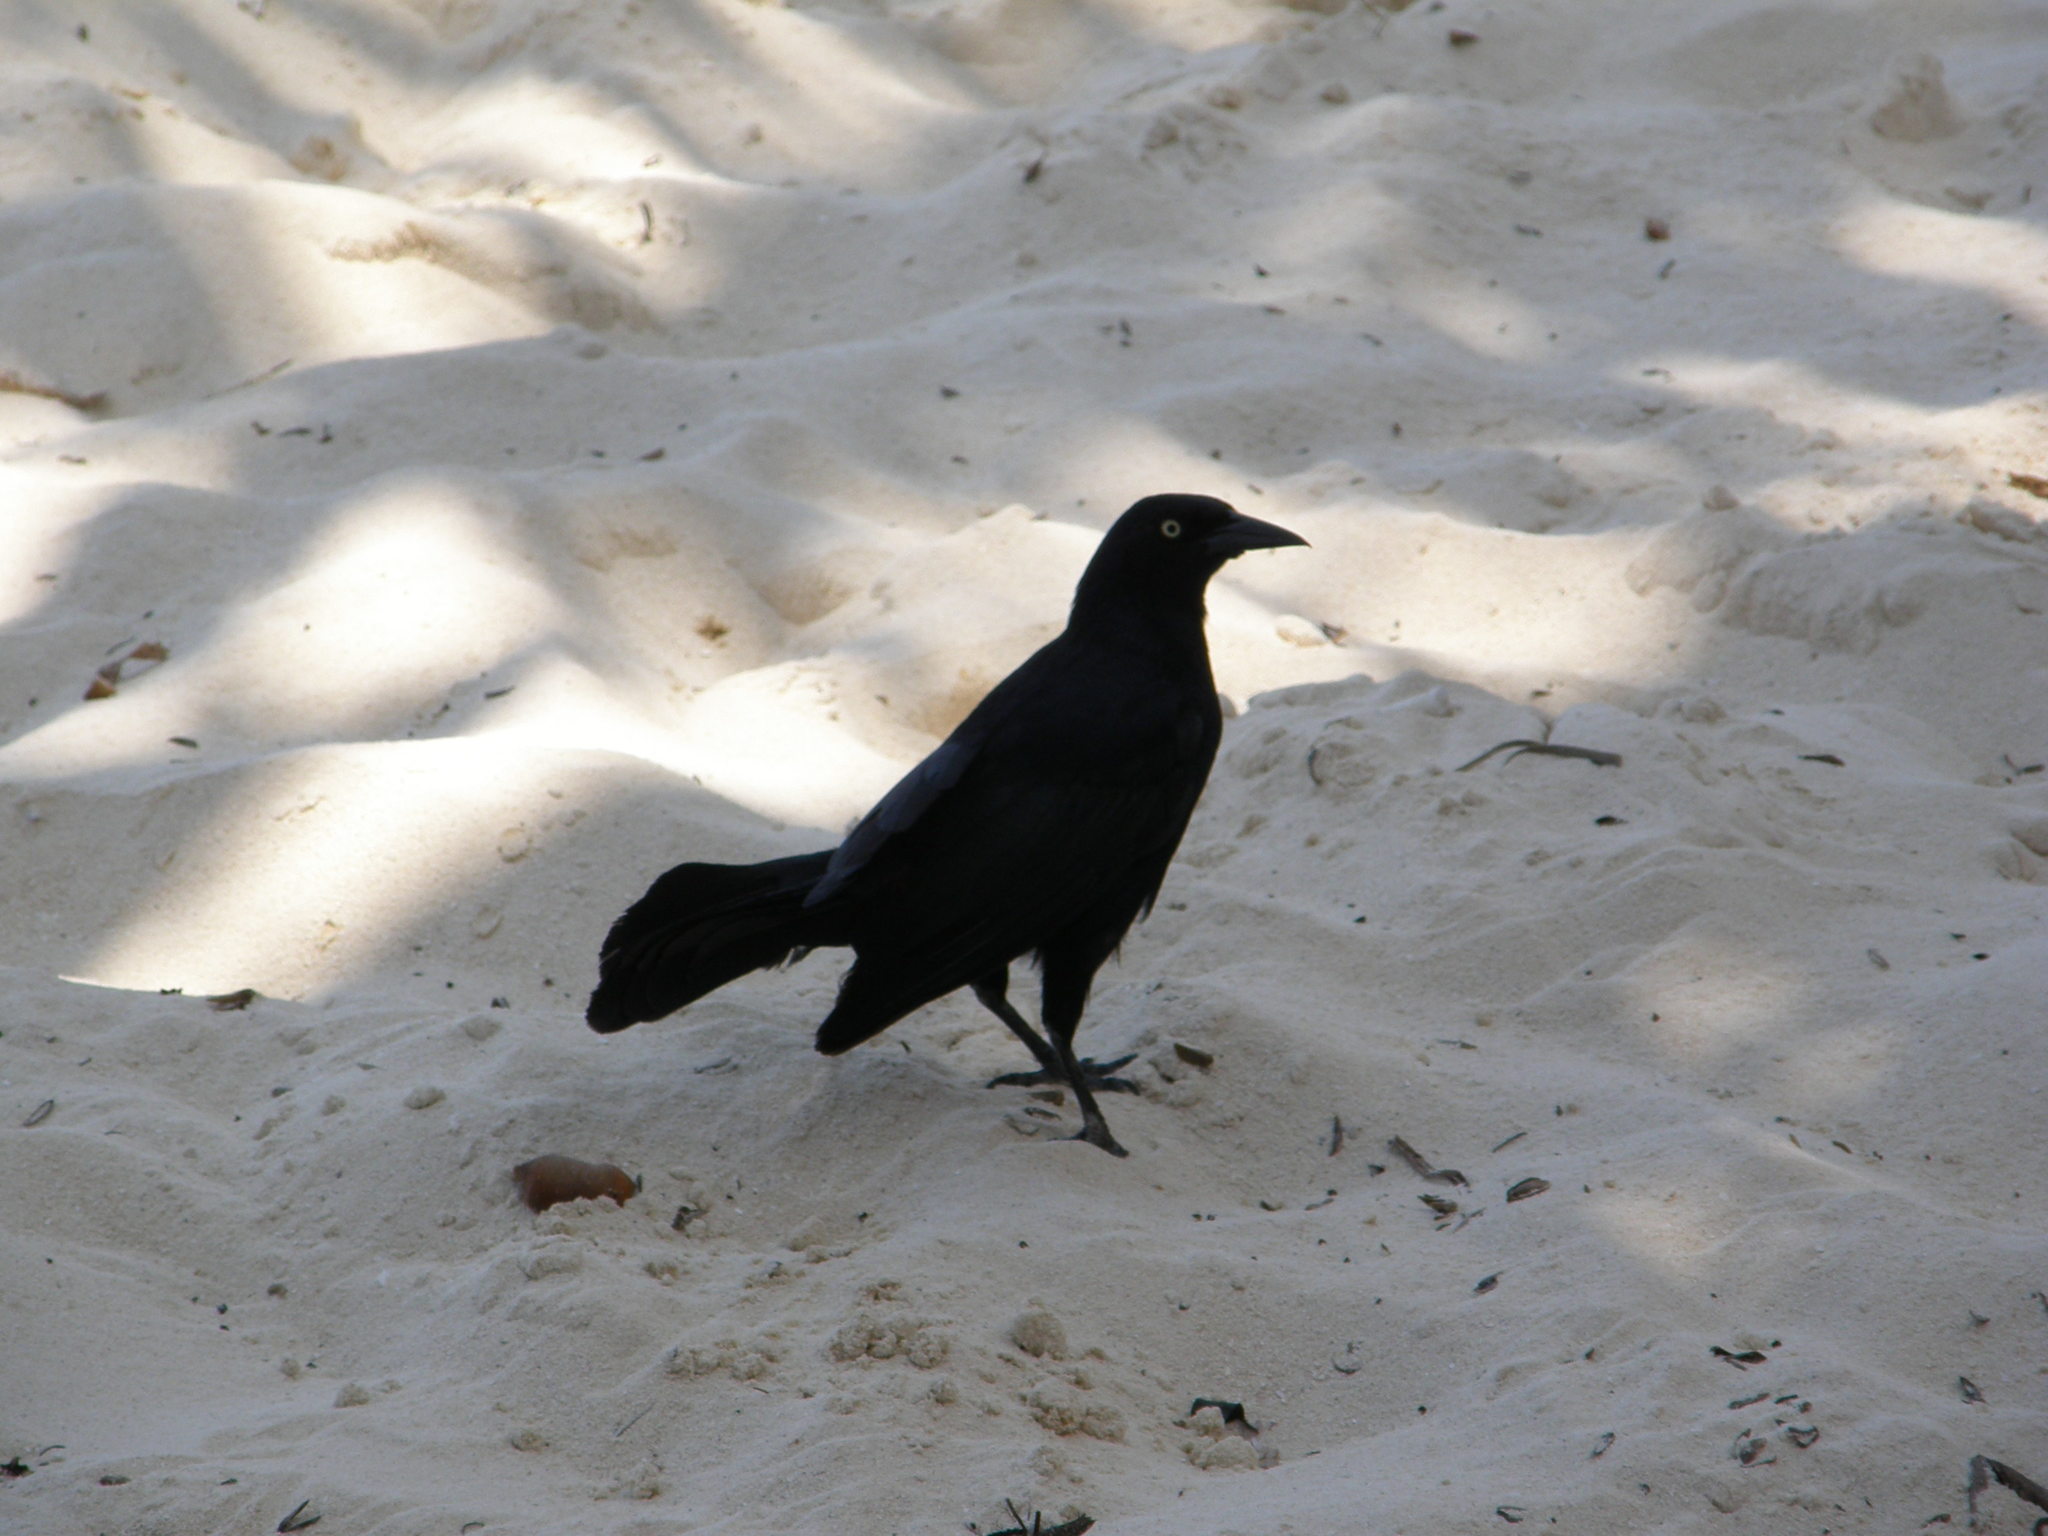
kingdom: Animalia
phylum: Chordata
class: Aves
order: Passeriformes
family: Icteridae
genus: Quiscalus
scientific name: Quiscalus niger
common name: Greater antillean grackle
